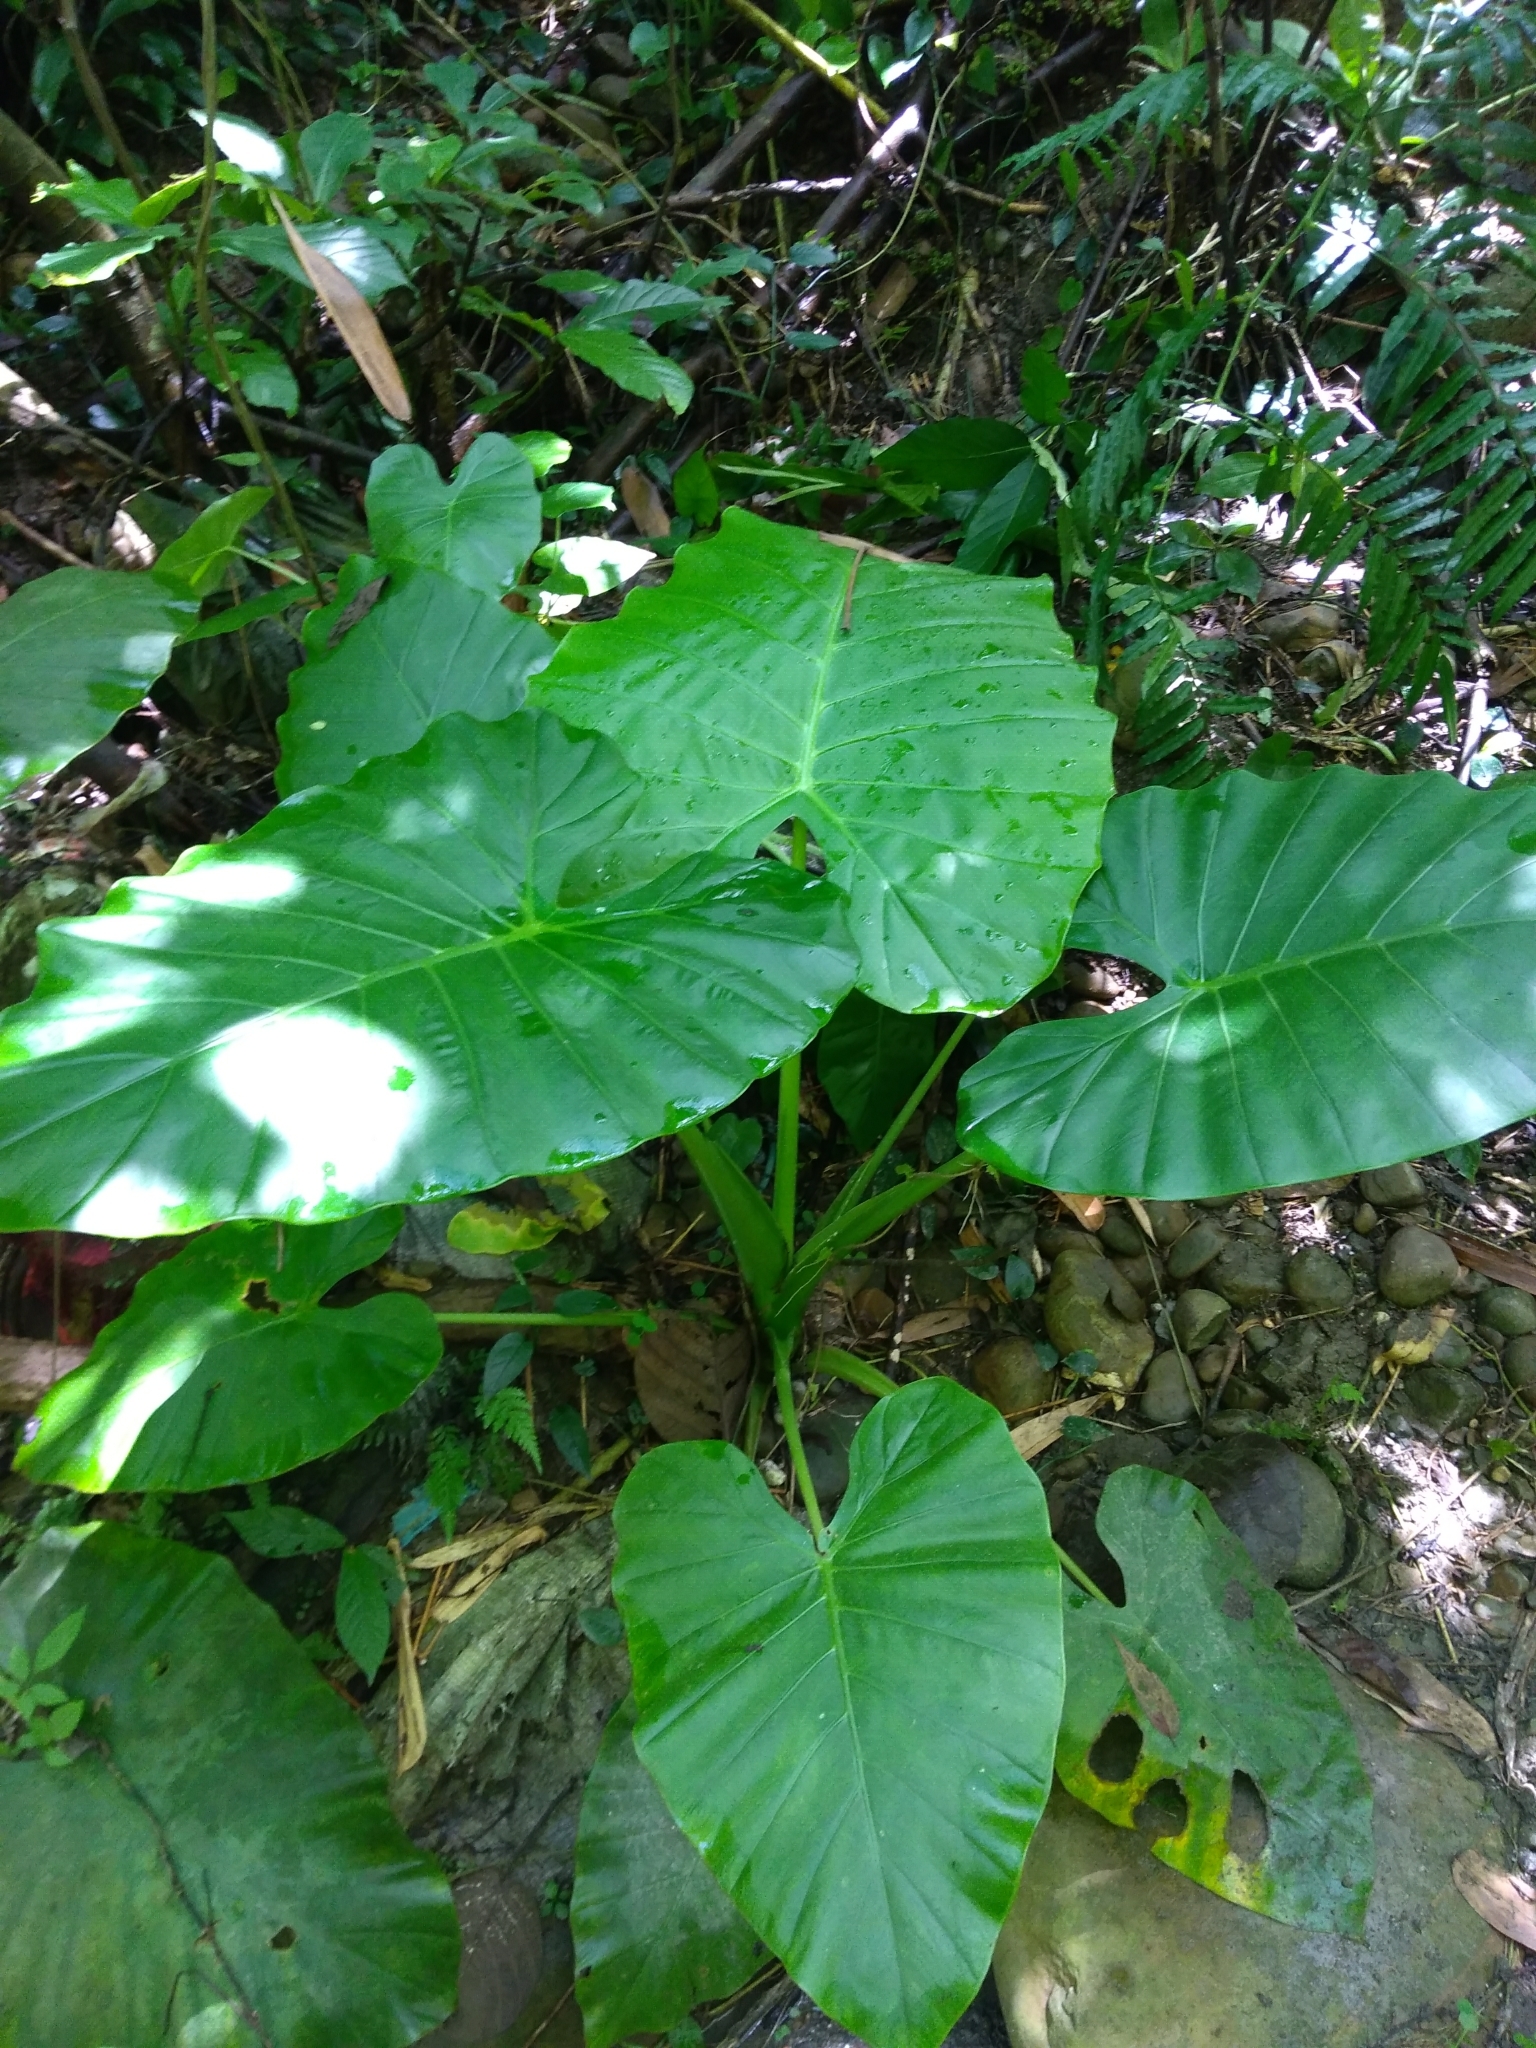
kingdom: Plantae
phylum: Tracheophyta
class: Liliopsida
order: Alismatales
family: Araceae
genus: Alocasia
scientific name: Alocasia odora
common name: Asian taro
